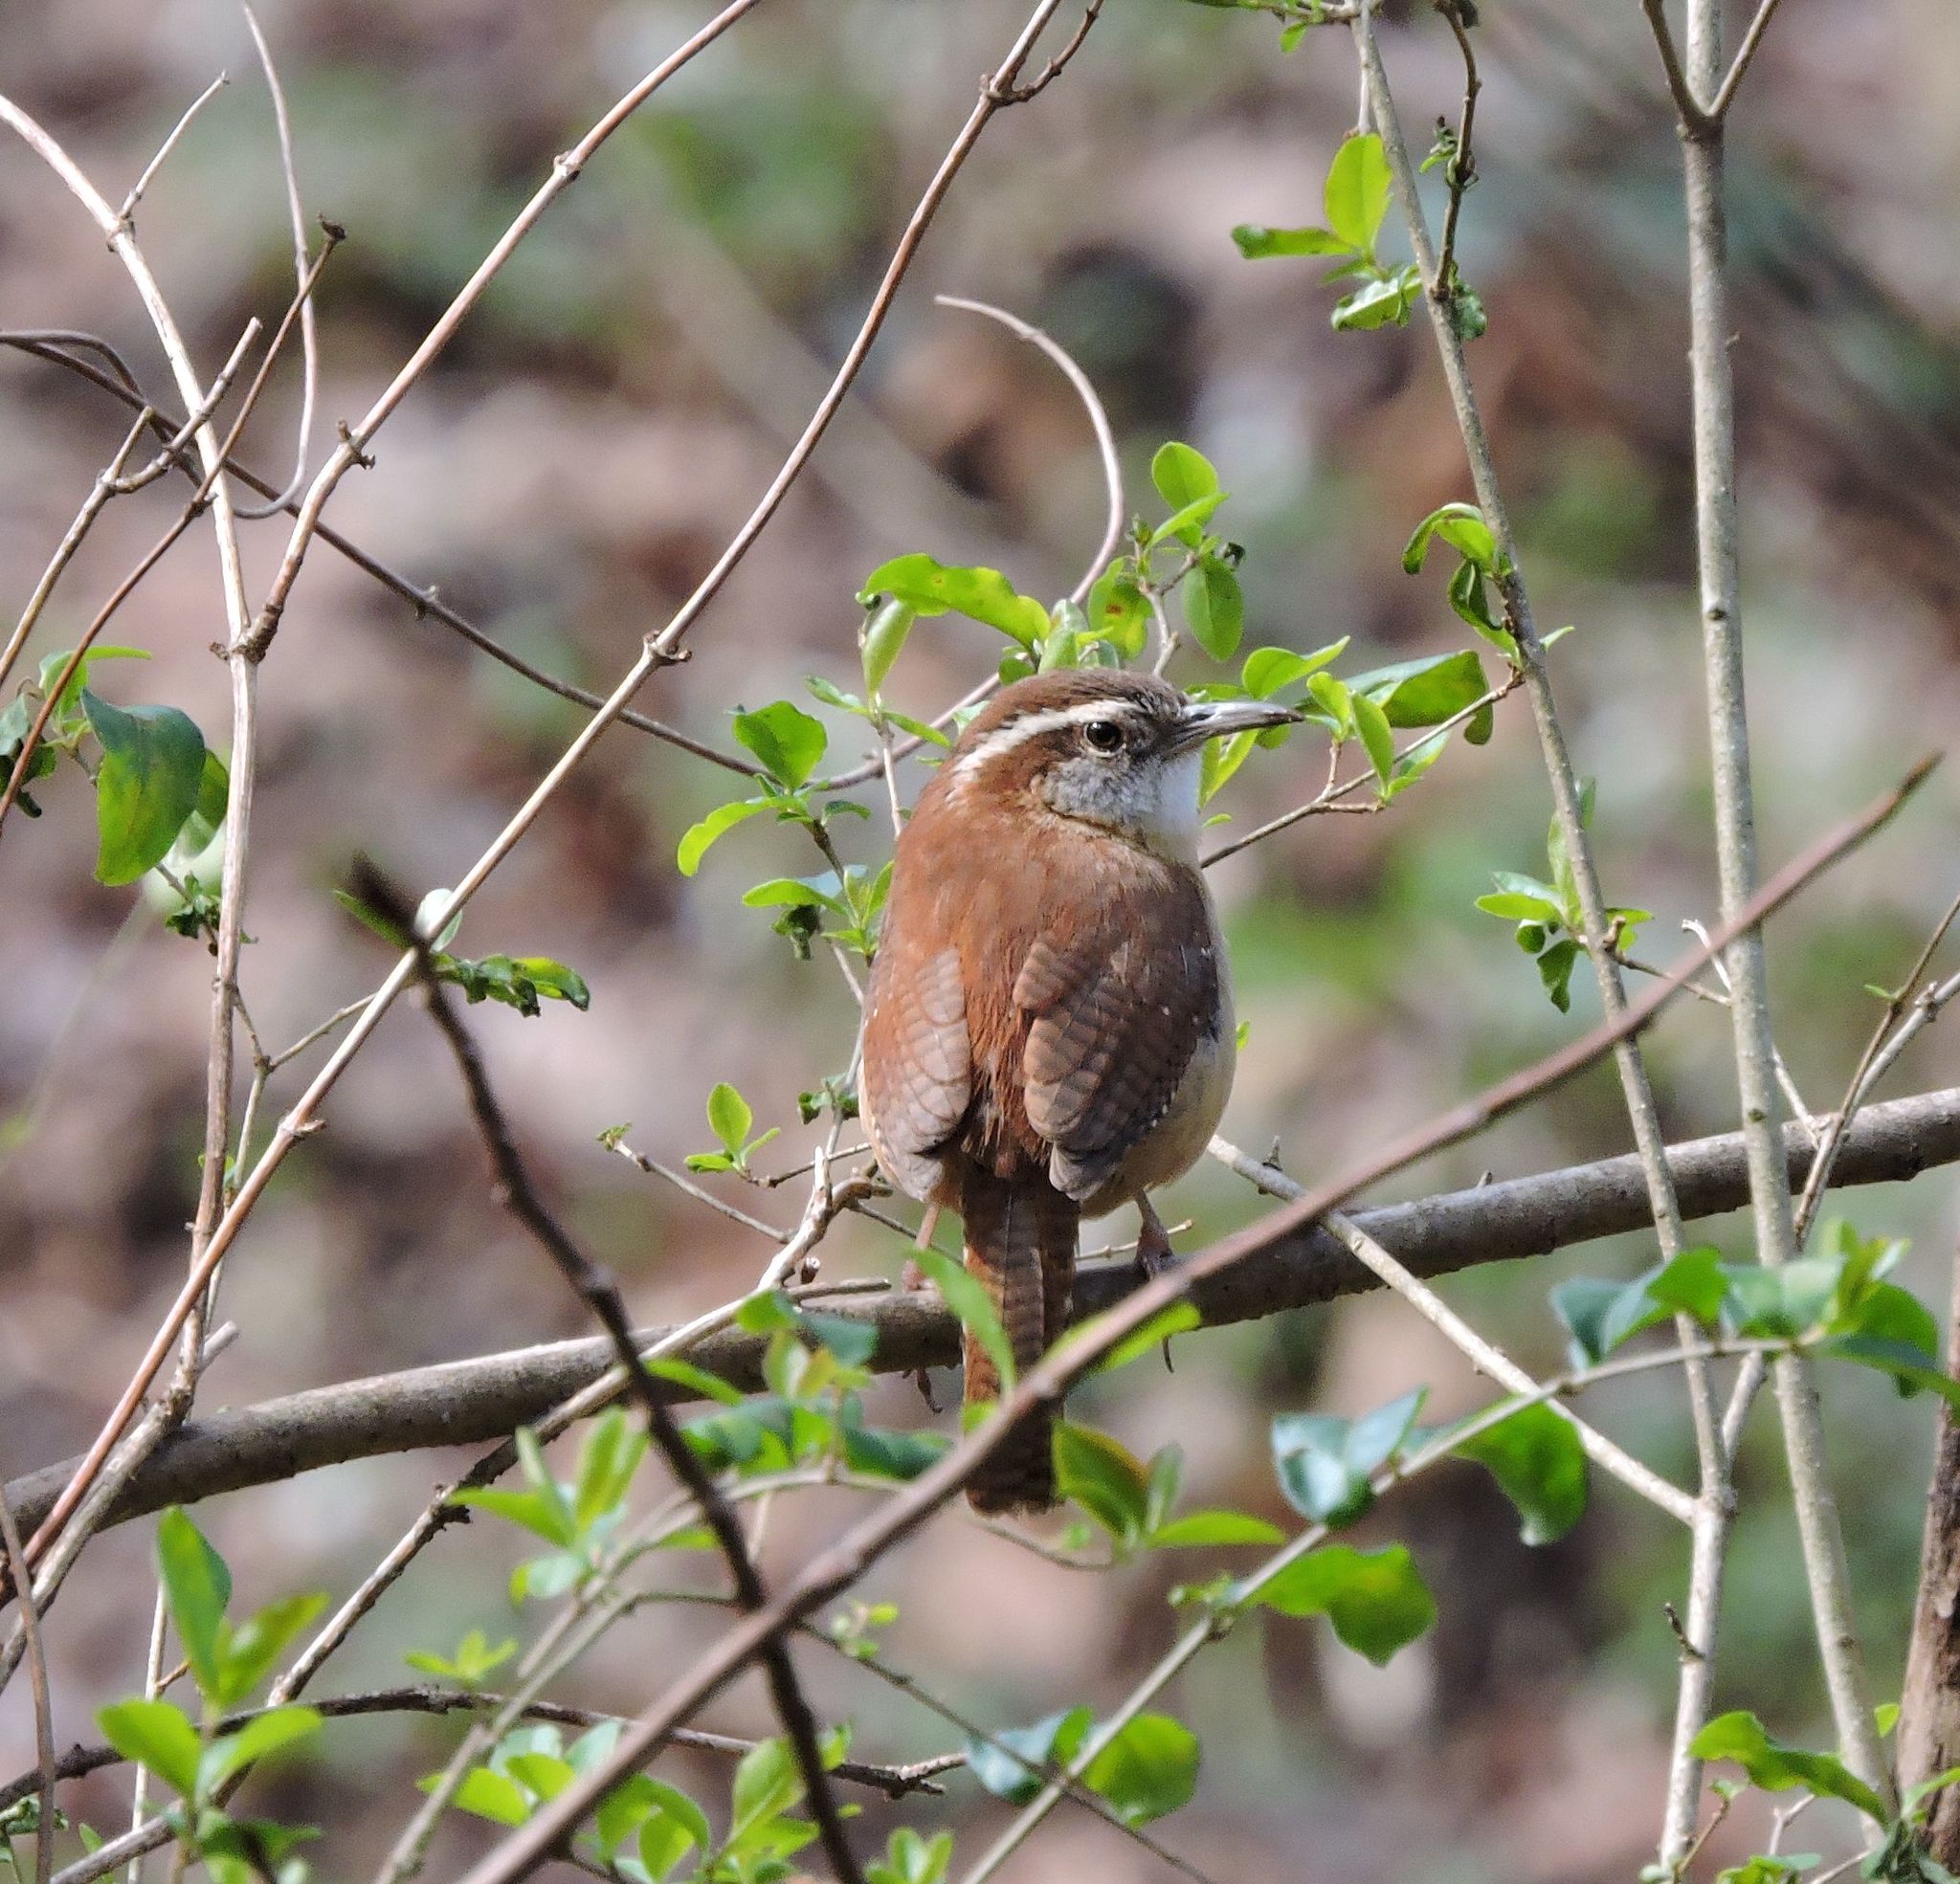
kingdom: Animalia
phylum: Chordata
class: Aves
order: Passeriformes
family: Troglodytidae
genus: Thryothorus
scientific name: Thryothorus ludovicianus
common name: Carolina wren
